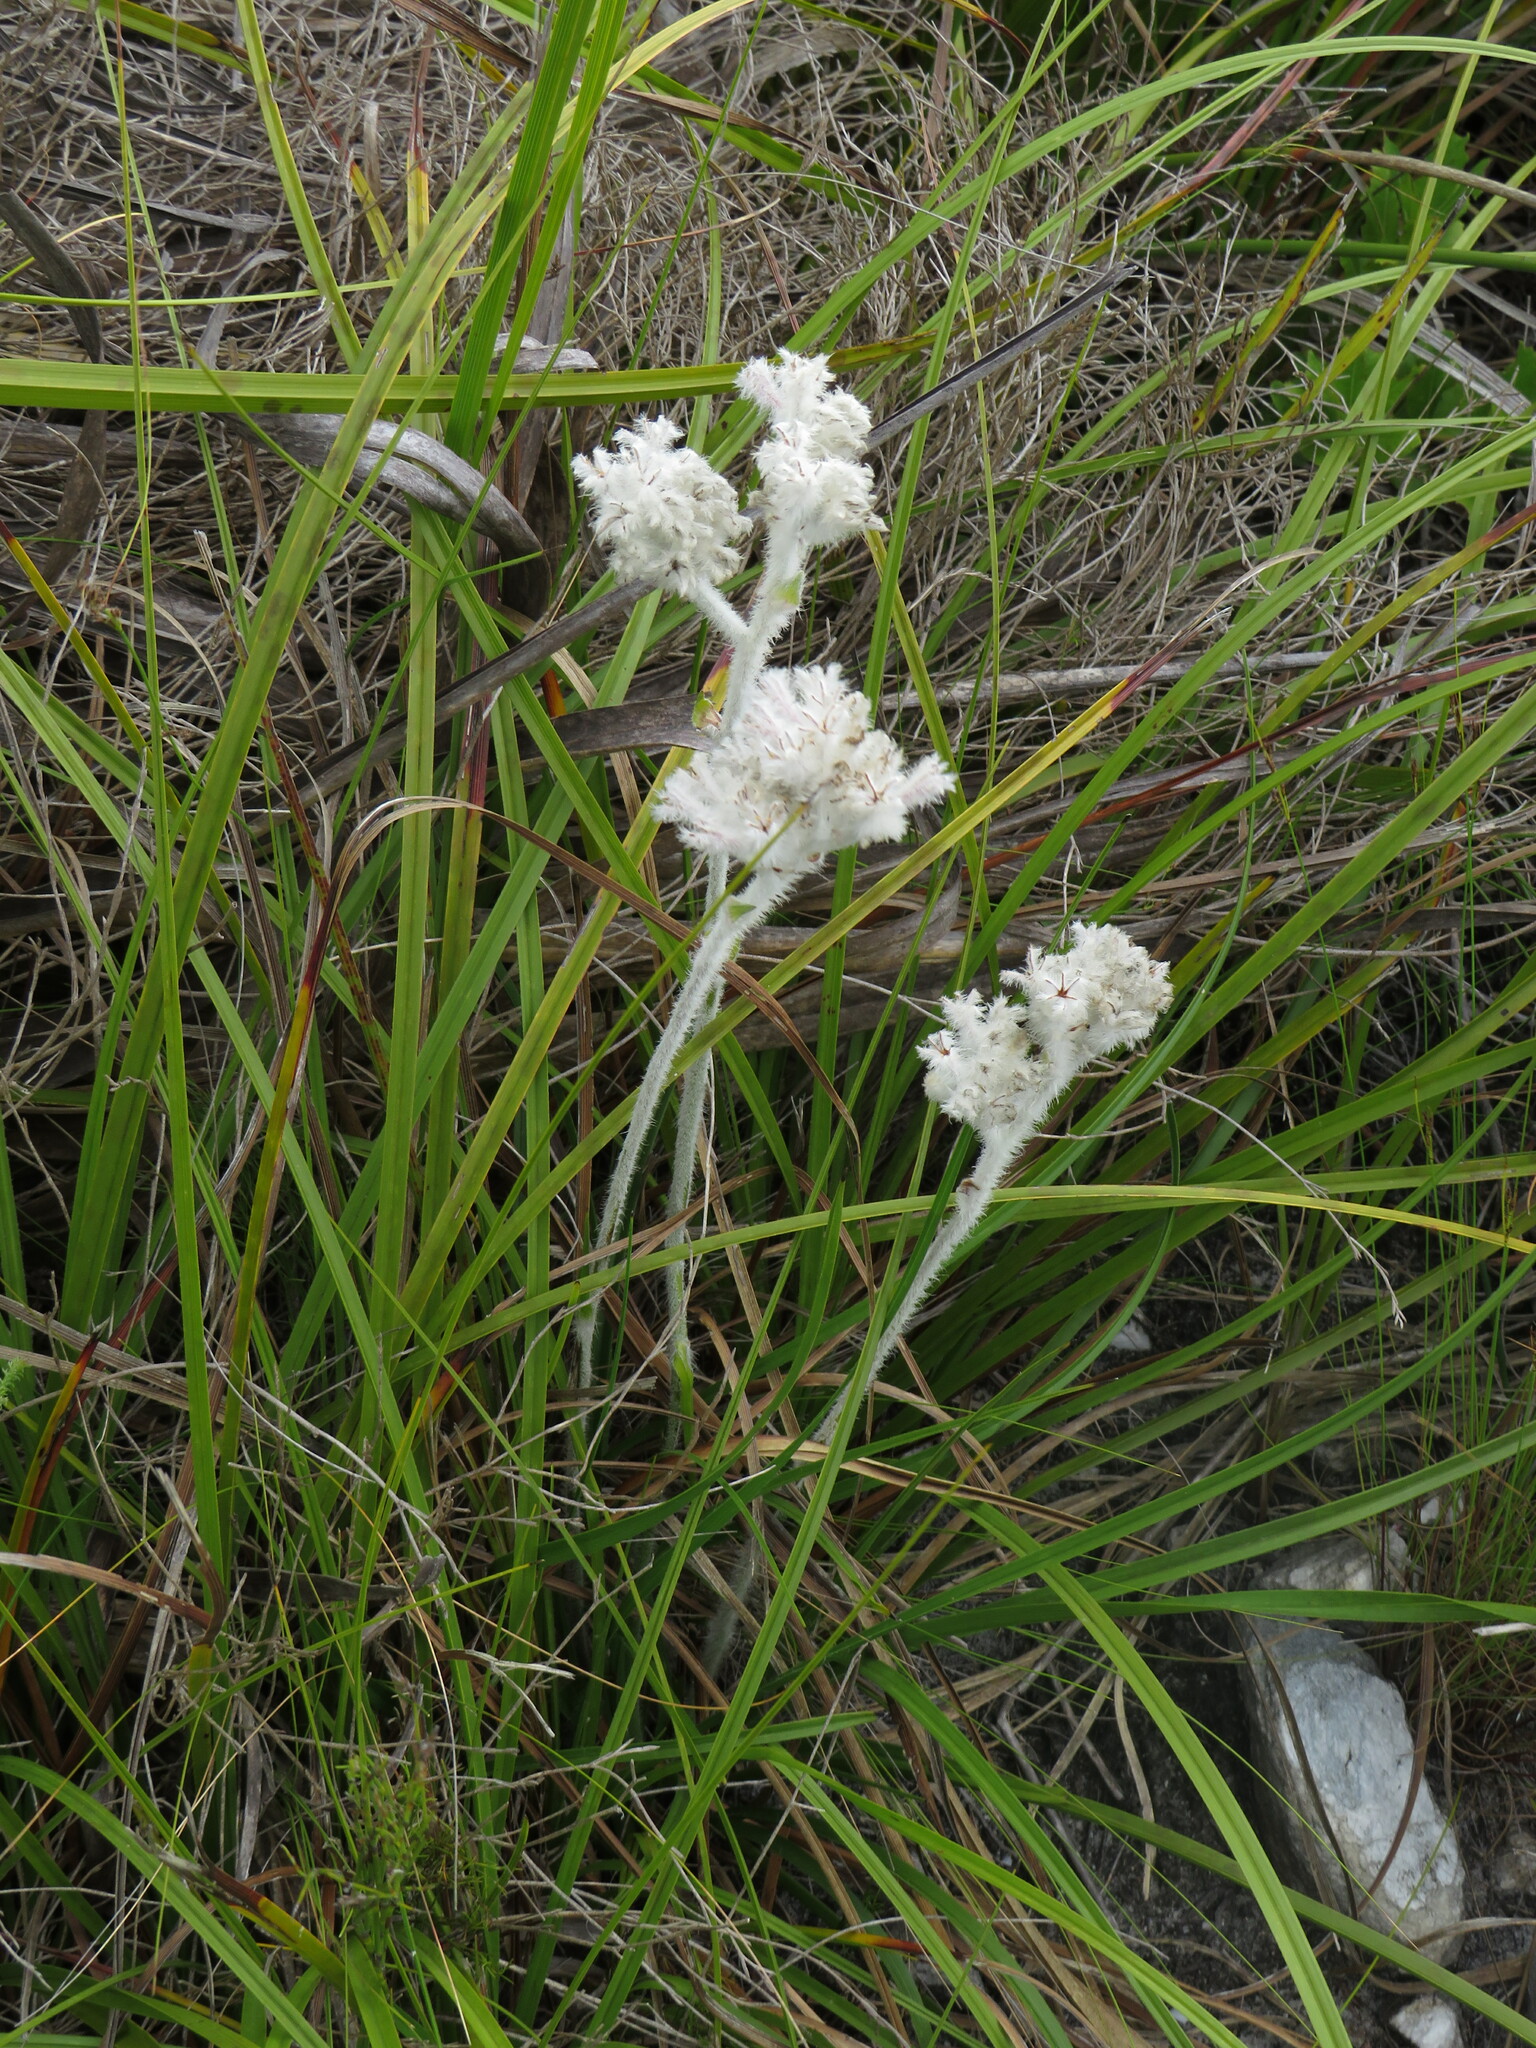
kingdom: Plantae
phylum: Tracheophyta
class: Liliopsida
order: Asparagales
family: Lanariaceae
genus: Lanaria
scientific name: Lanaria lanata
